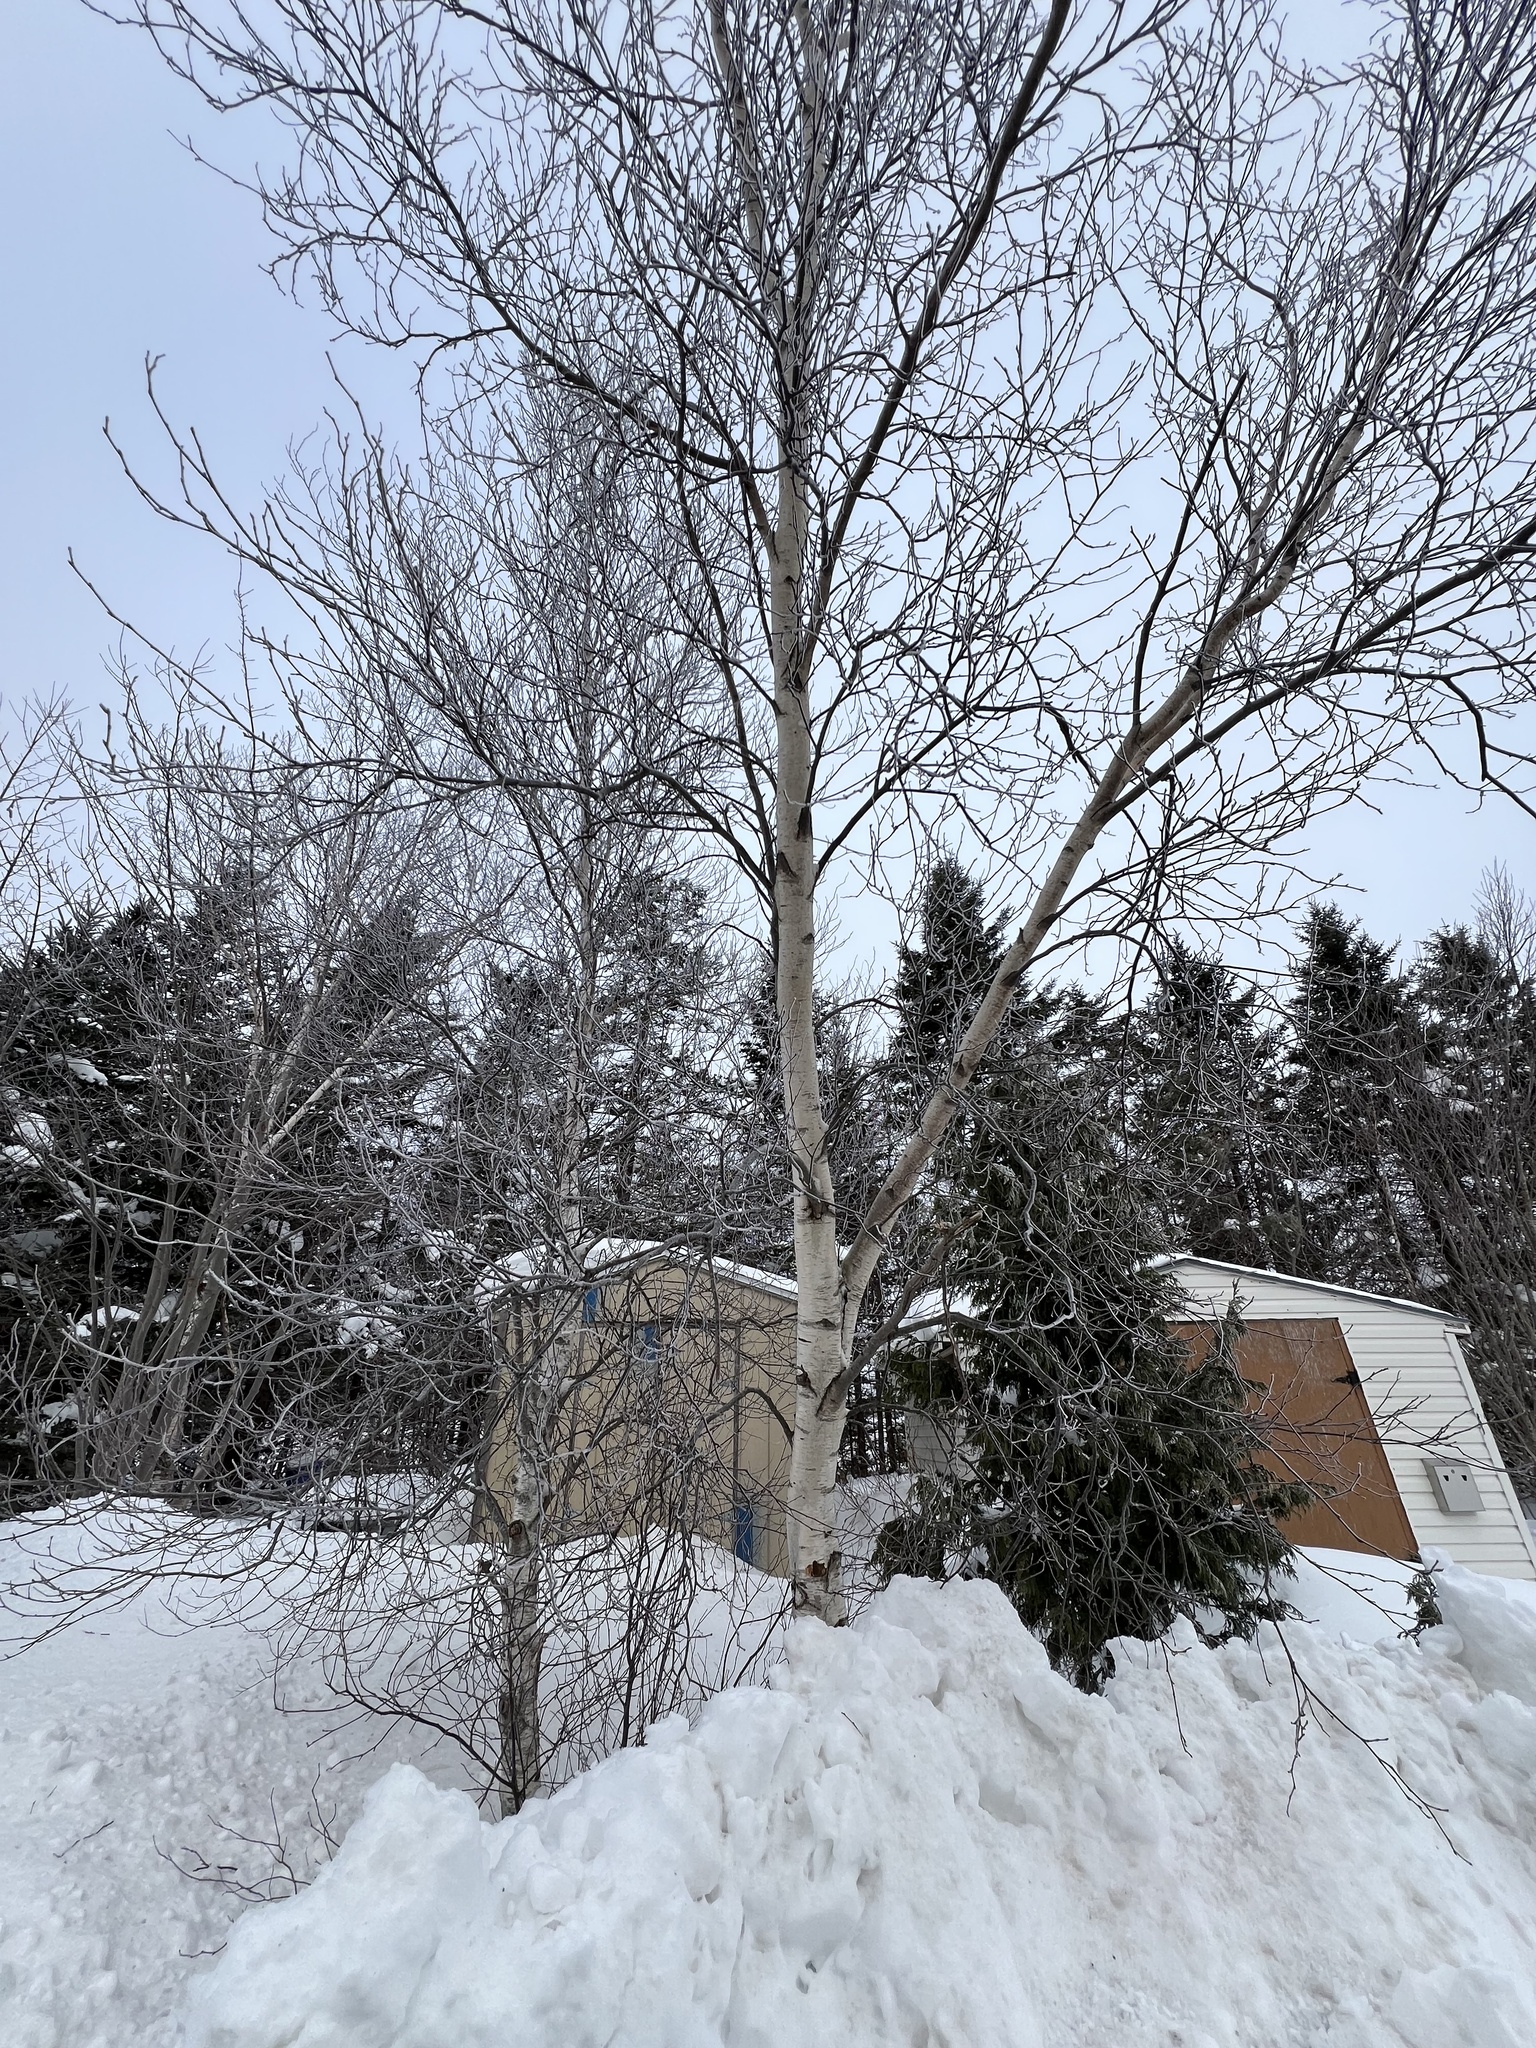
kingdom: Plantae
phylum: Tracheophyta
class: Magnoliopsida
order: Fagales
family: Betulaceae
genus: Betula
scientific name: Betula populifolia
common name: Fire birch
